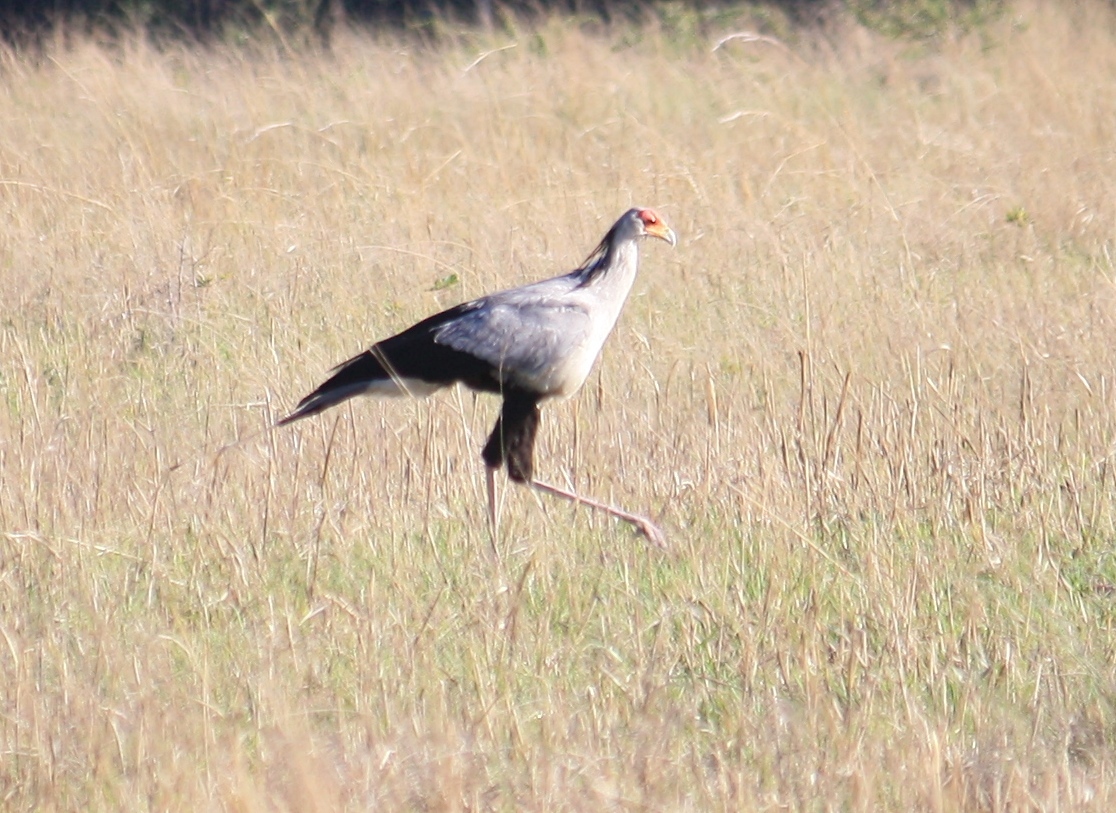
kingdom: Animalia
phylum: Chordata
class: Aves
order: Accipitriformes
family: Sagittariidae
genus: Sagittarius
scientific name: Sagittarius serpentarius
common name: Secretarybird
